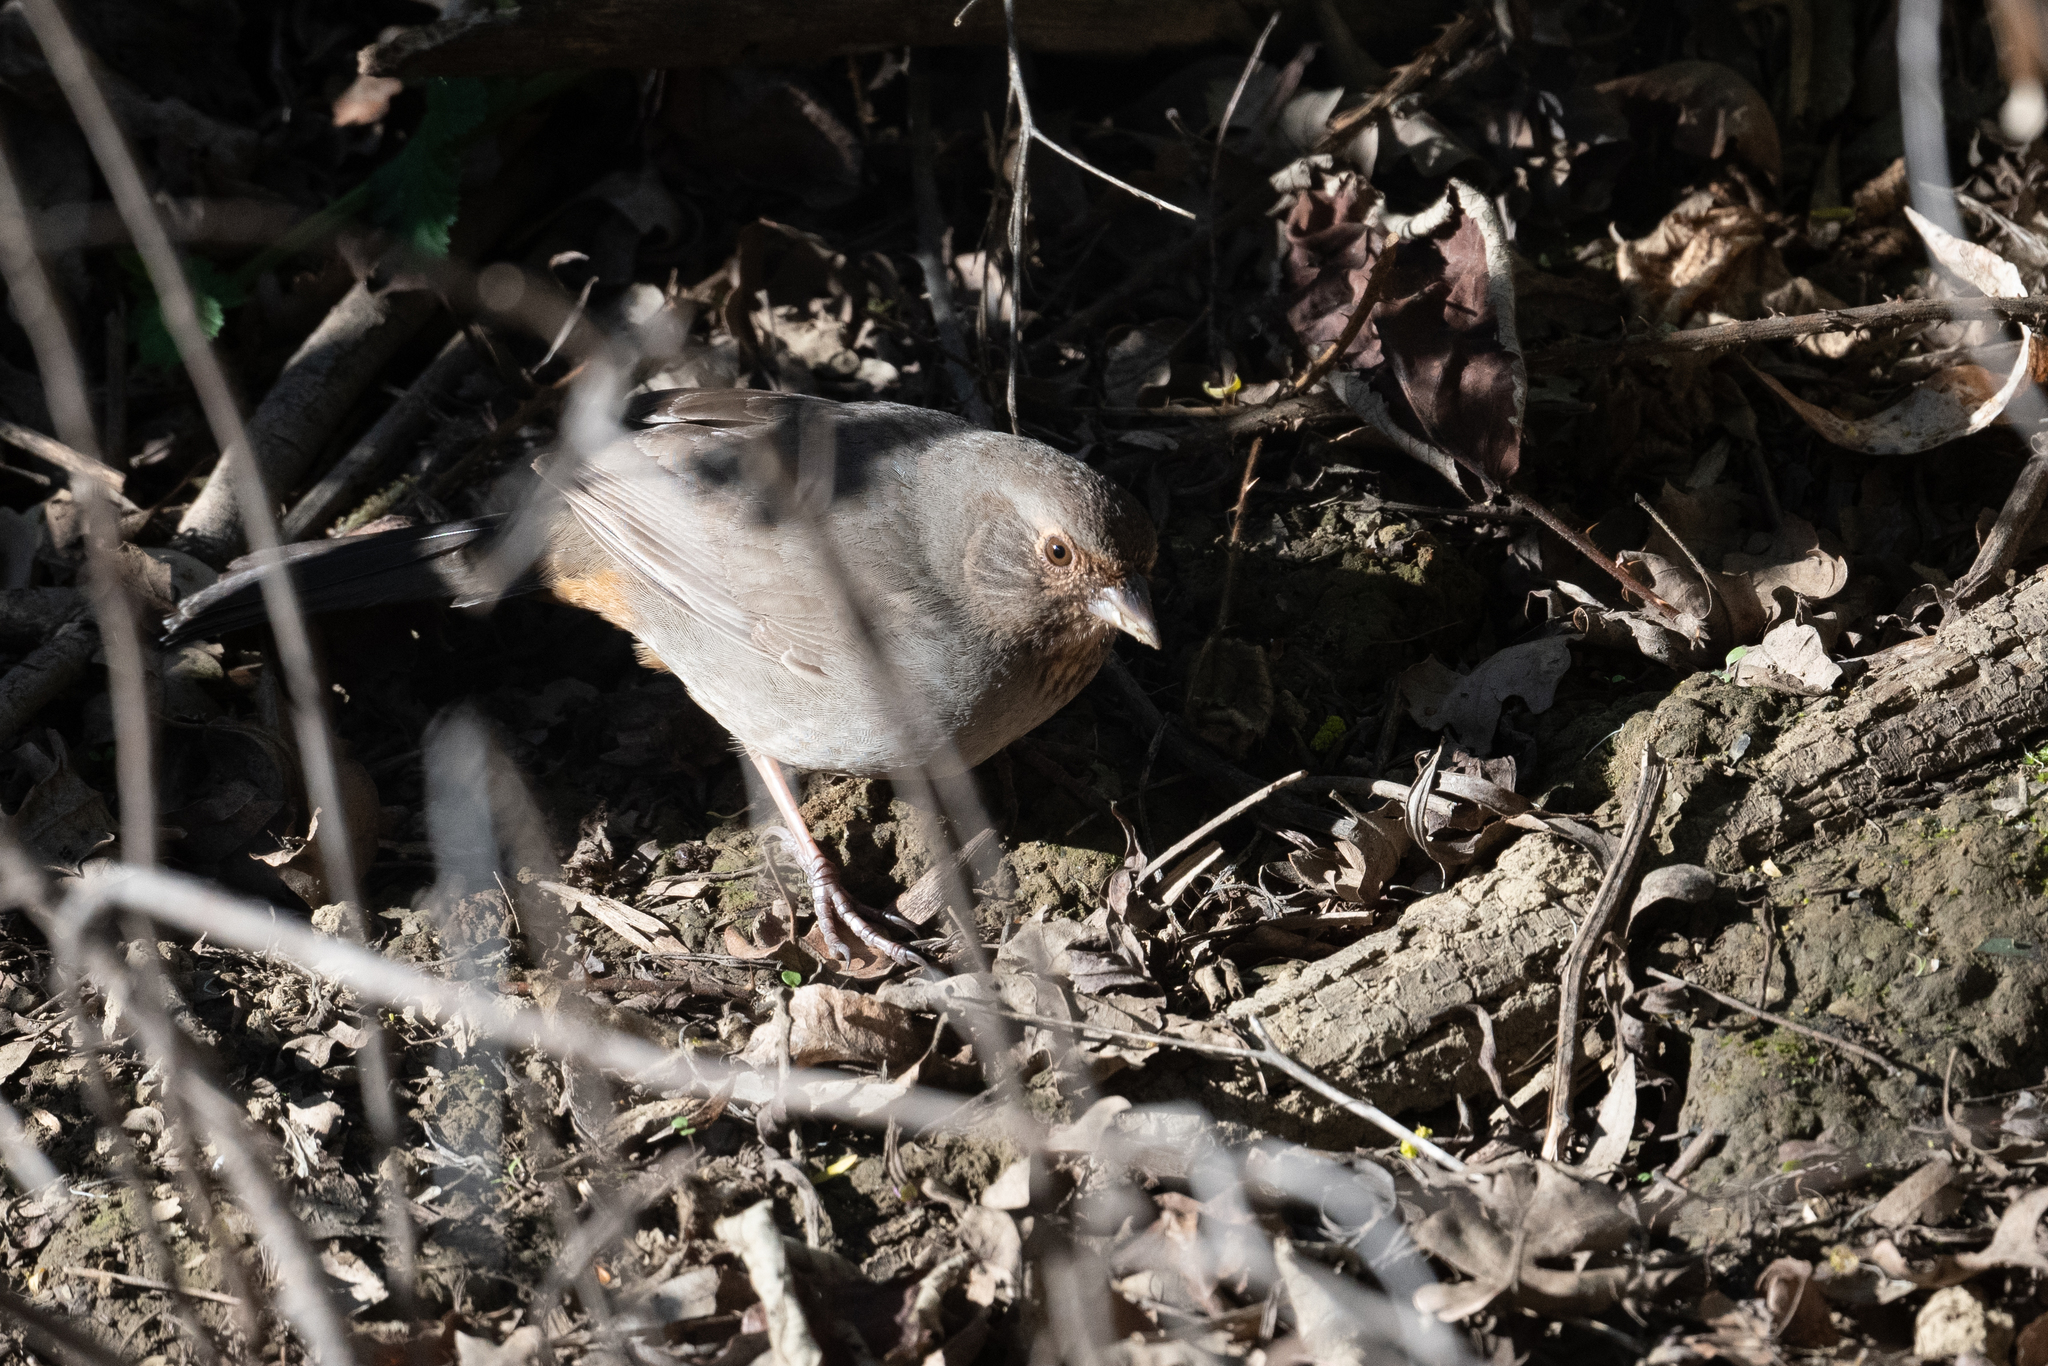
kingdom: Animalia
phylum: Chordata
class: Aves
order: Passeriformes
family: Passerellidae
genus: Melozone
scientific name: Melozone crissalis
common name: California towhee
